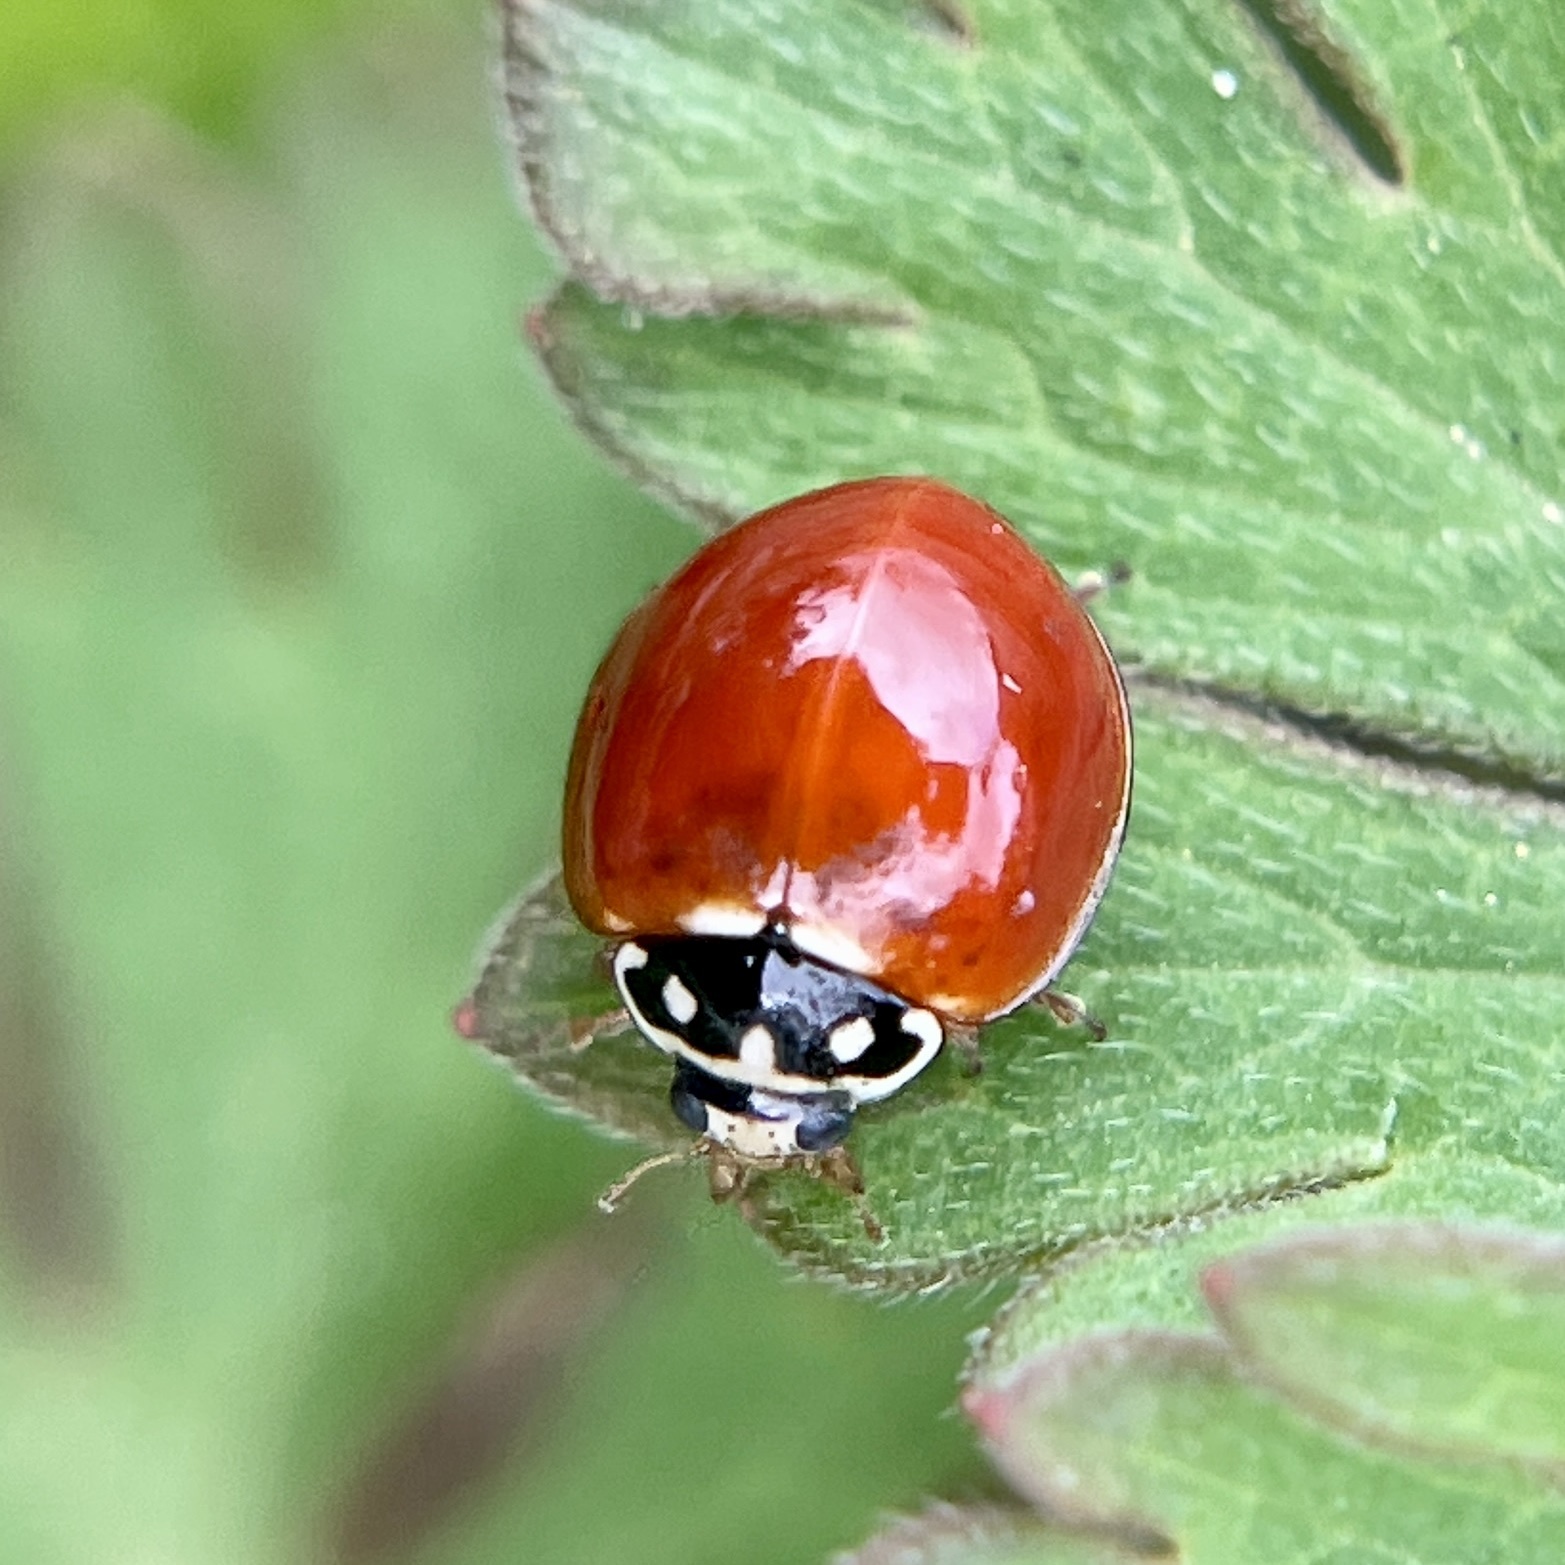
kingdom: Animalia
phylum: Arthropoda
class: Insecta
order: Coleoptera
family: Coccinellidae
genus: Cycloneda
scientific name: Cycloneda sanguinea
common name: Ladybird beetle
